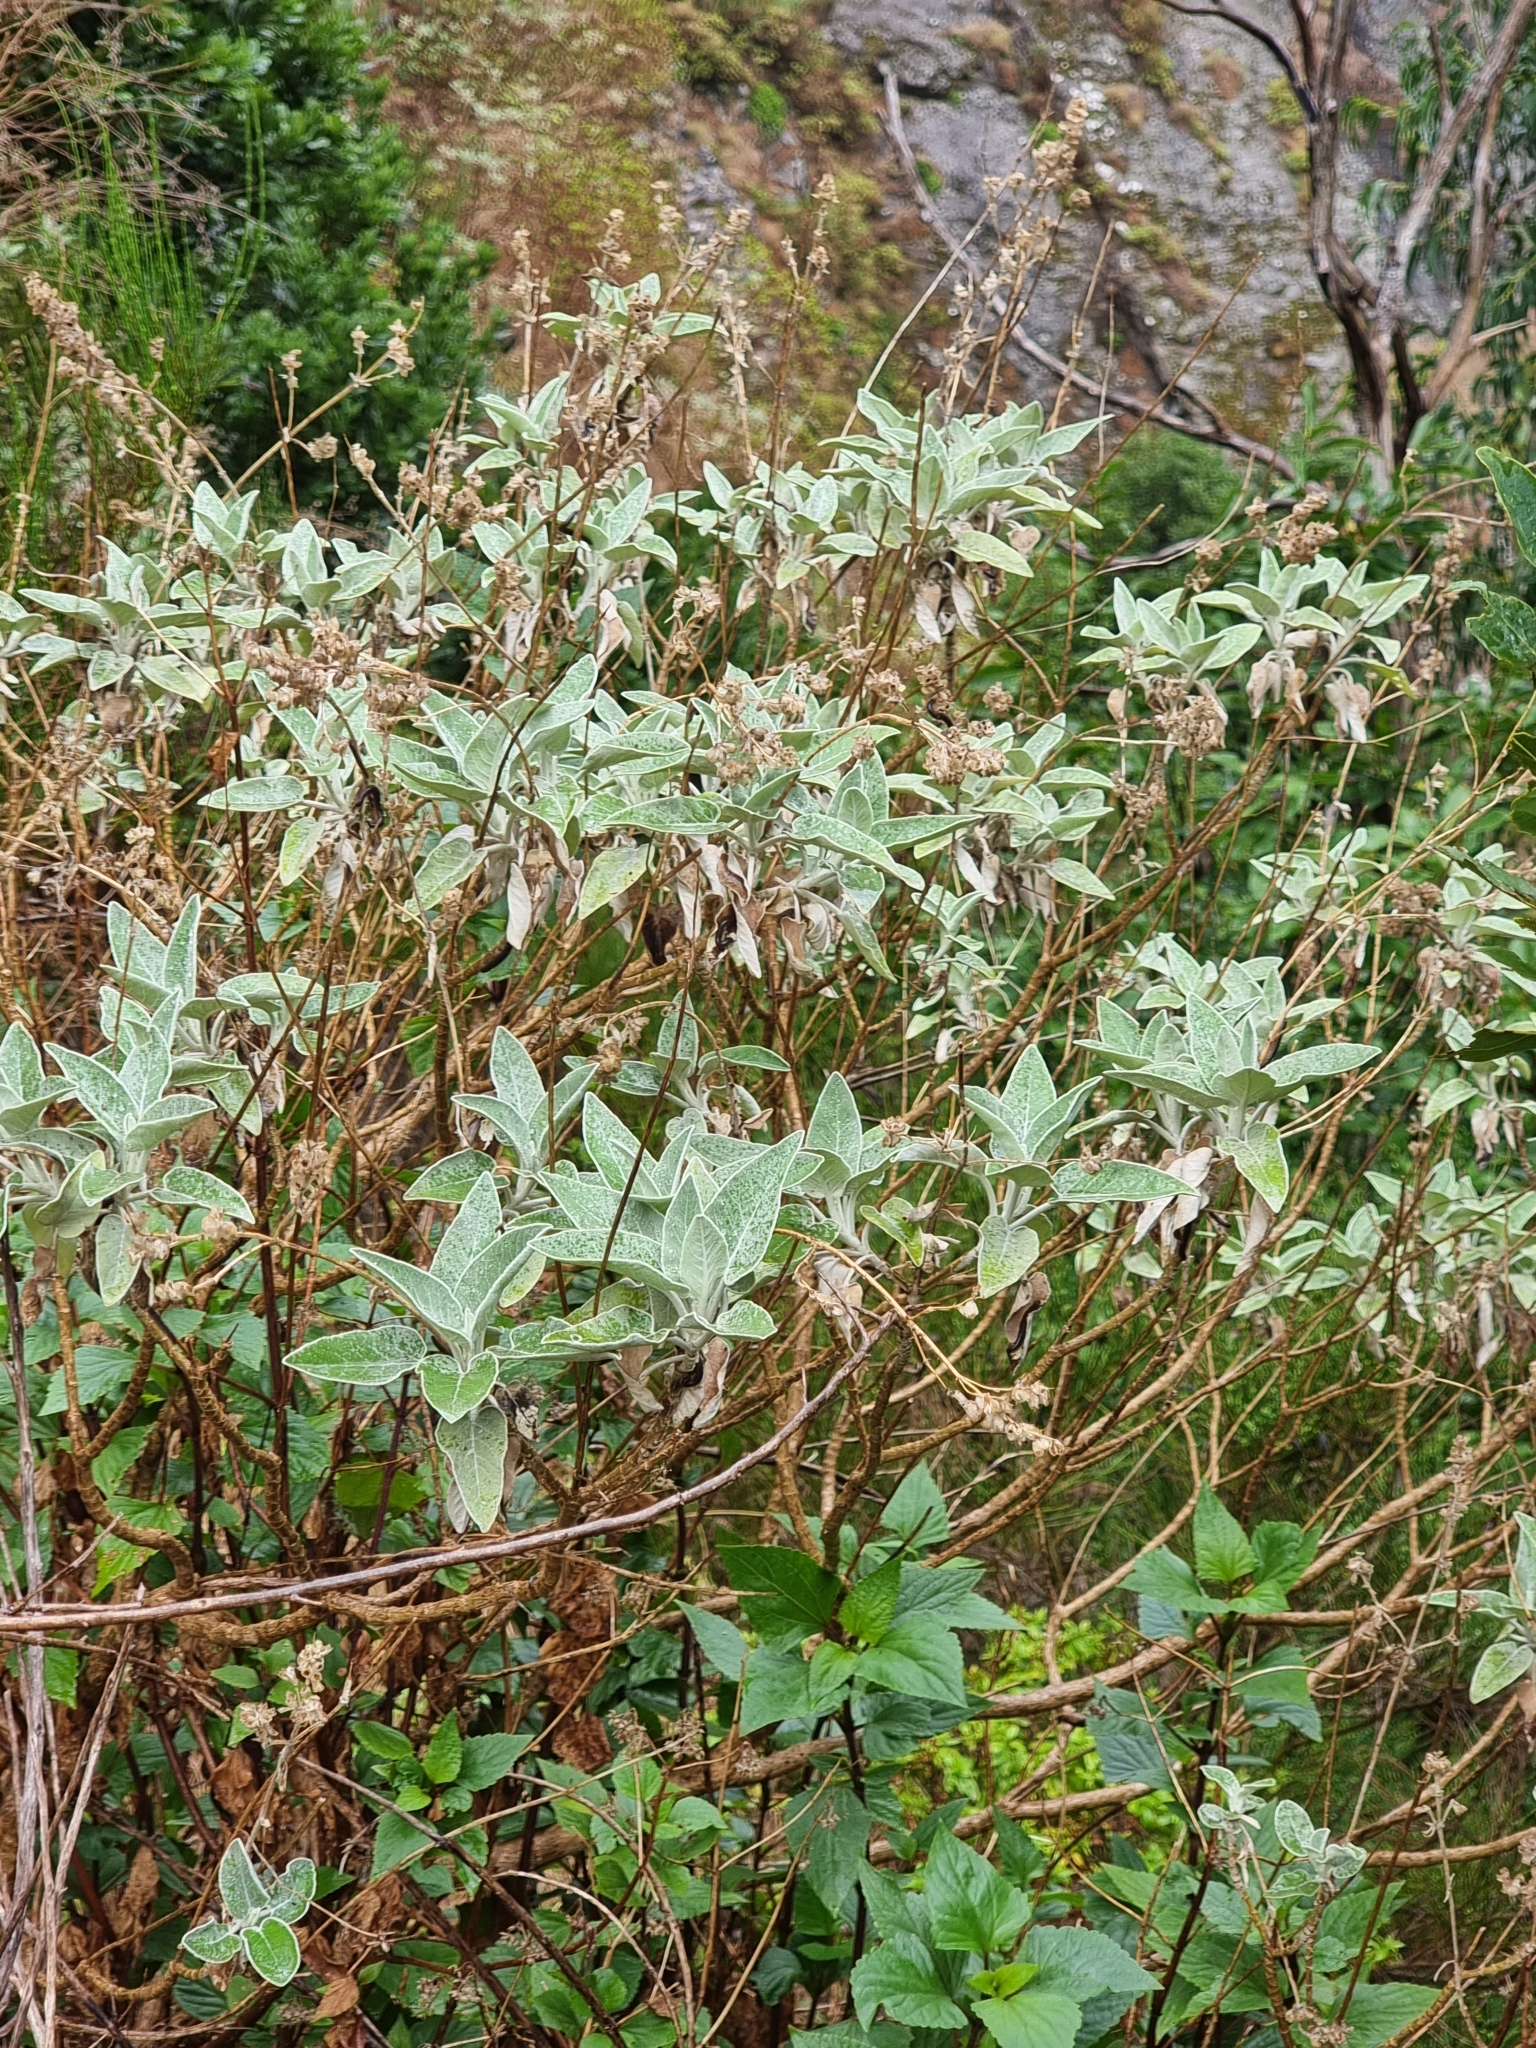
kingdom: Plantae
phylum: Tracheophyta
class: Magnoliopsida
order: Lamiales
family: Lamiaceae
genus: Sideritis
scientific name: Sideritis candicans
